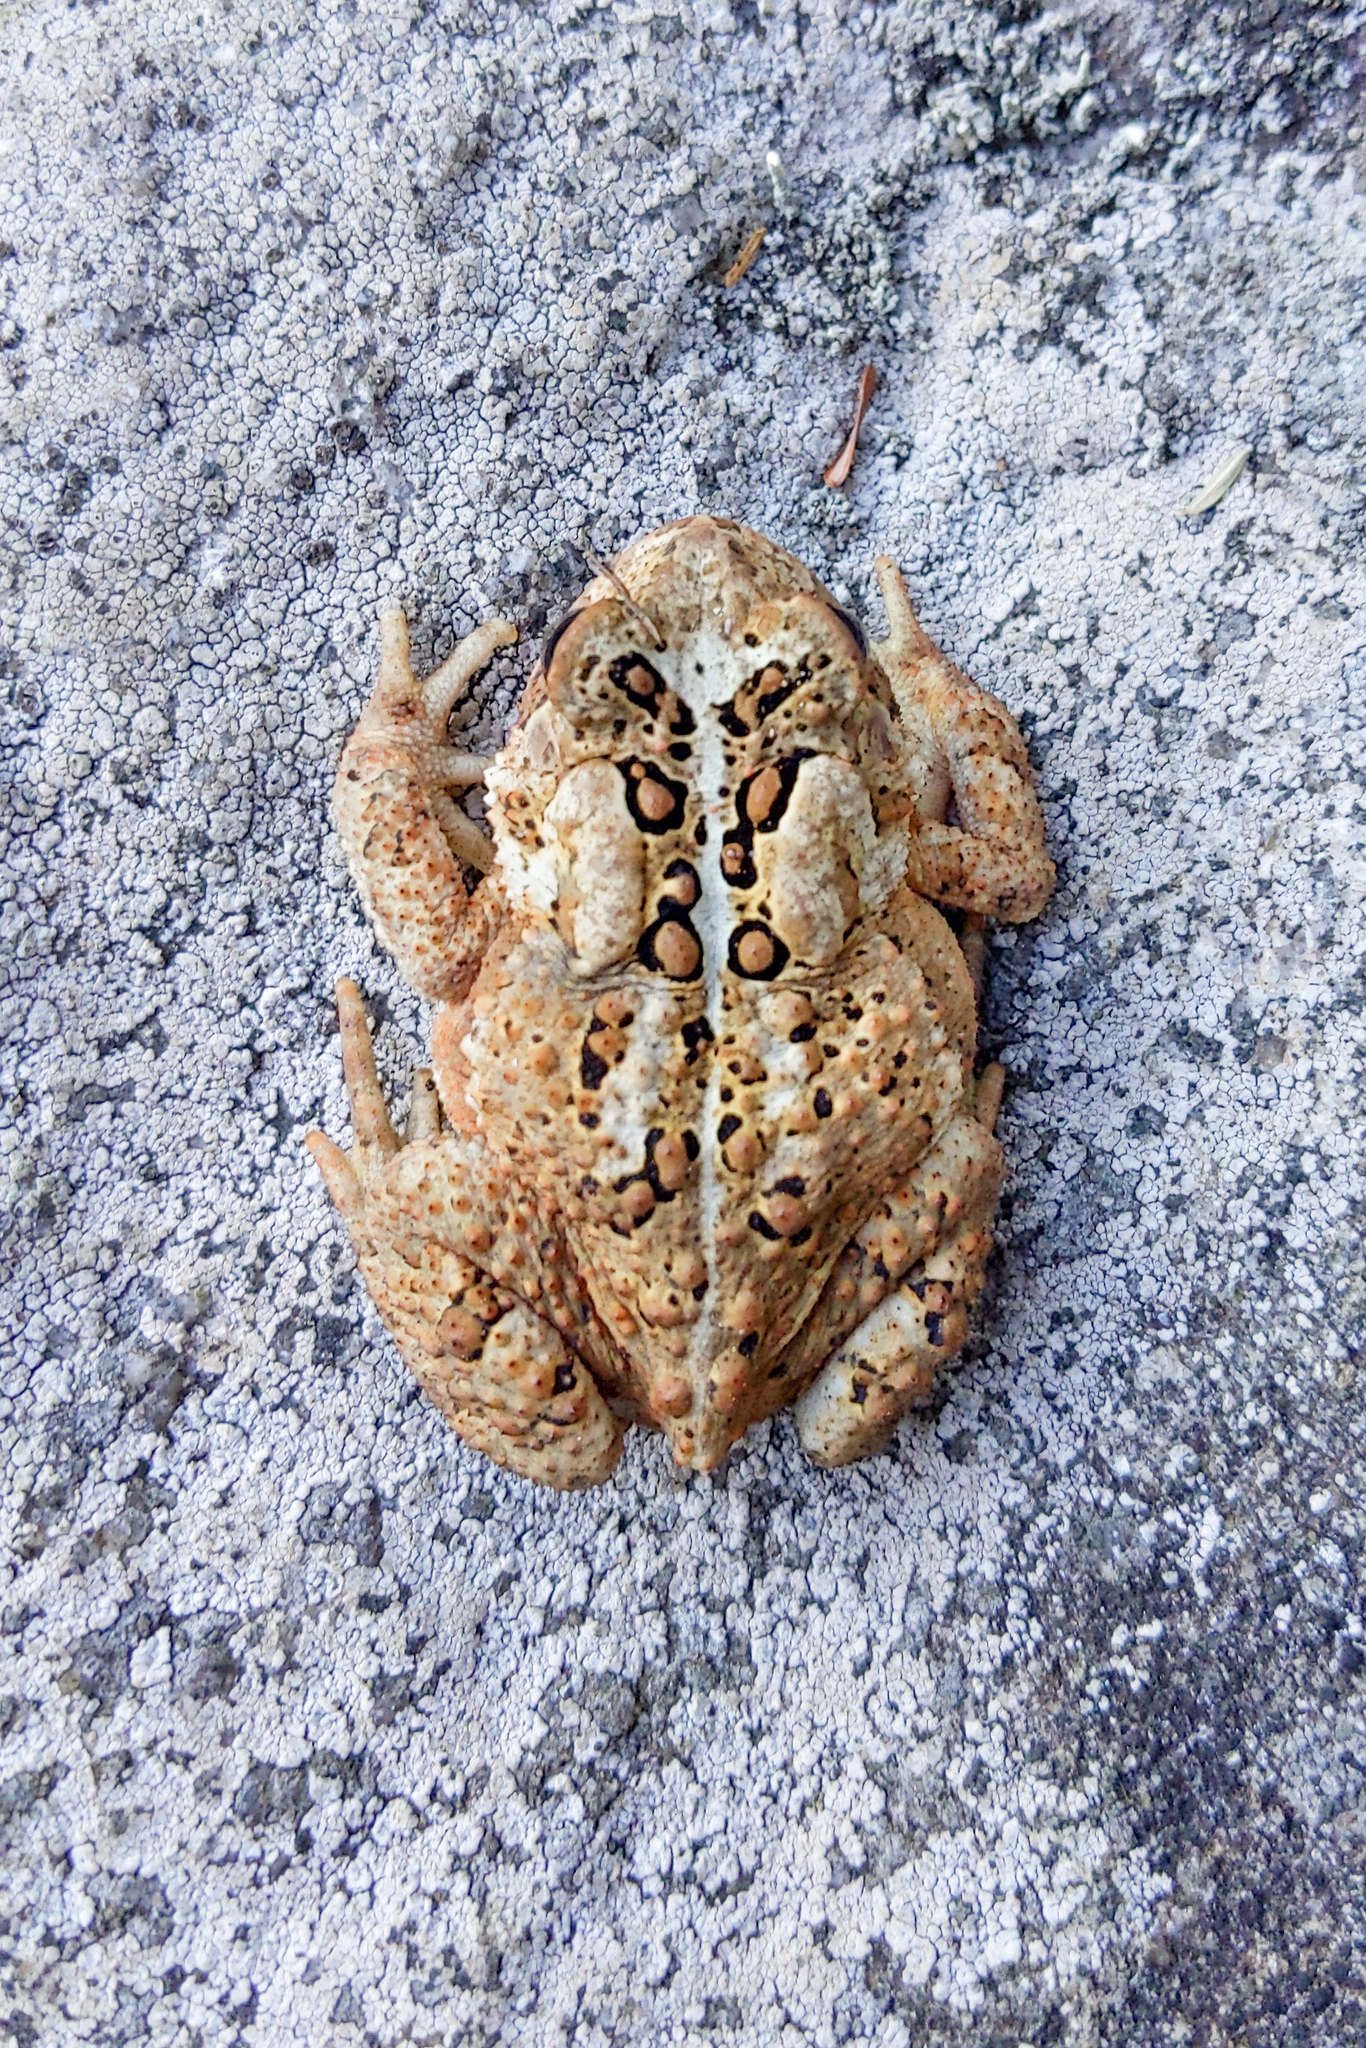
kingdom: Animalia
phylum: Chordata
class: Amphibia
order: Anura
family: Bufonidae
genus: Anaxyrus
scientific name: Anaxyrus americanus
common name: American toad
